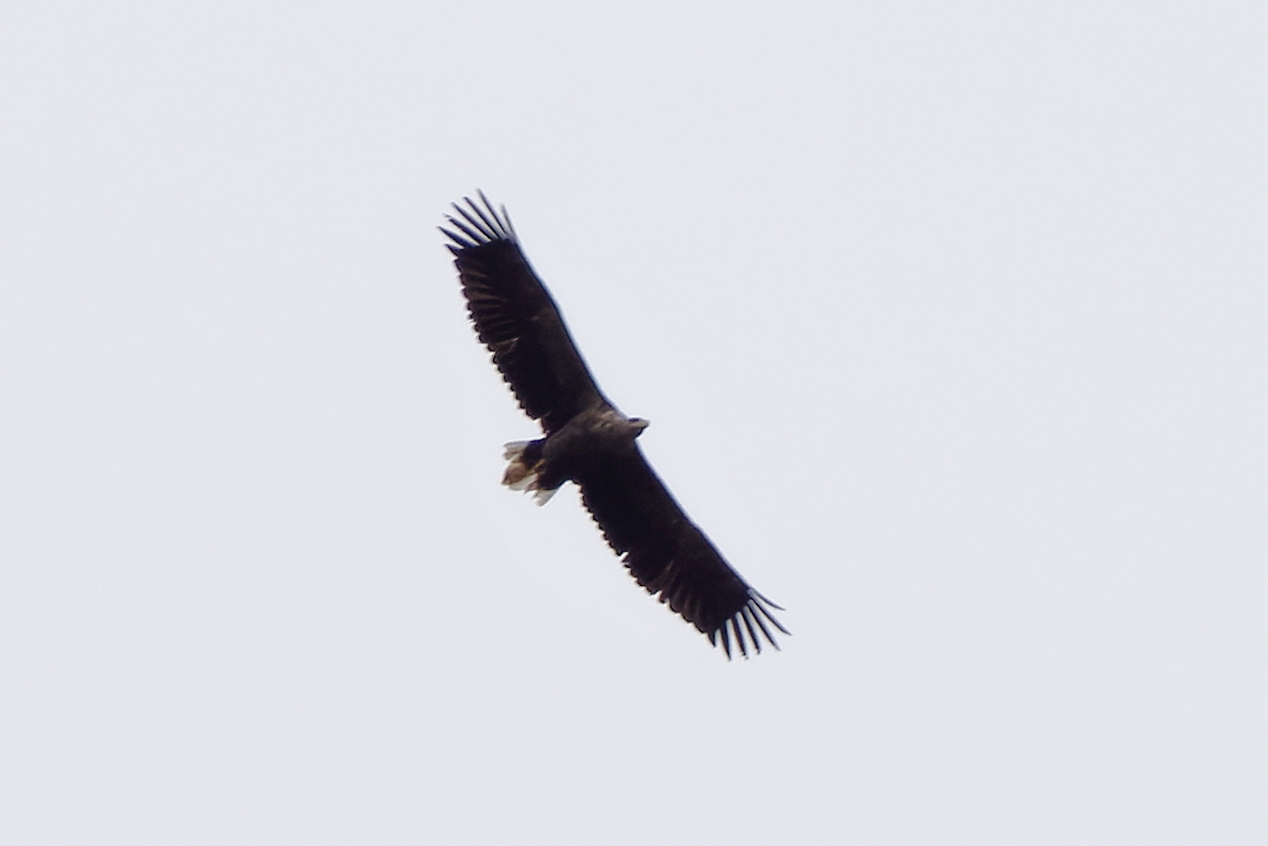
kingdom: Animalia
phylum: Chordata
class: Aves
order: Accipitriformes
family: Accipitridae
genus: Haliaeetus
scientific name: Haliaeetus albicilla
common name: White-tailed eagle
